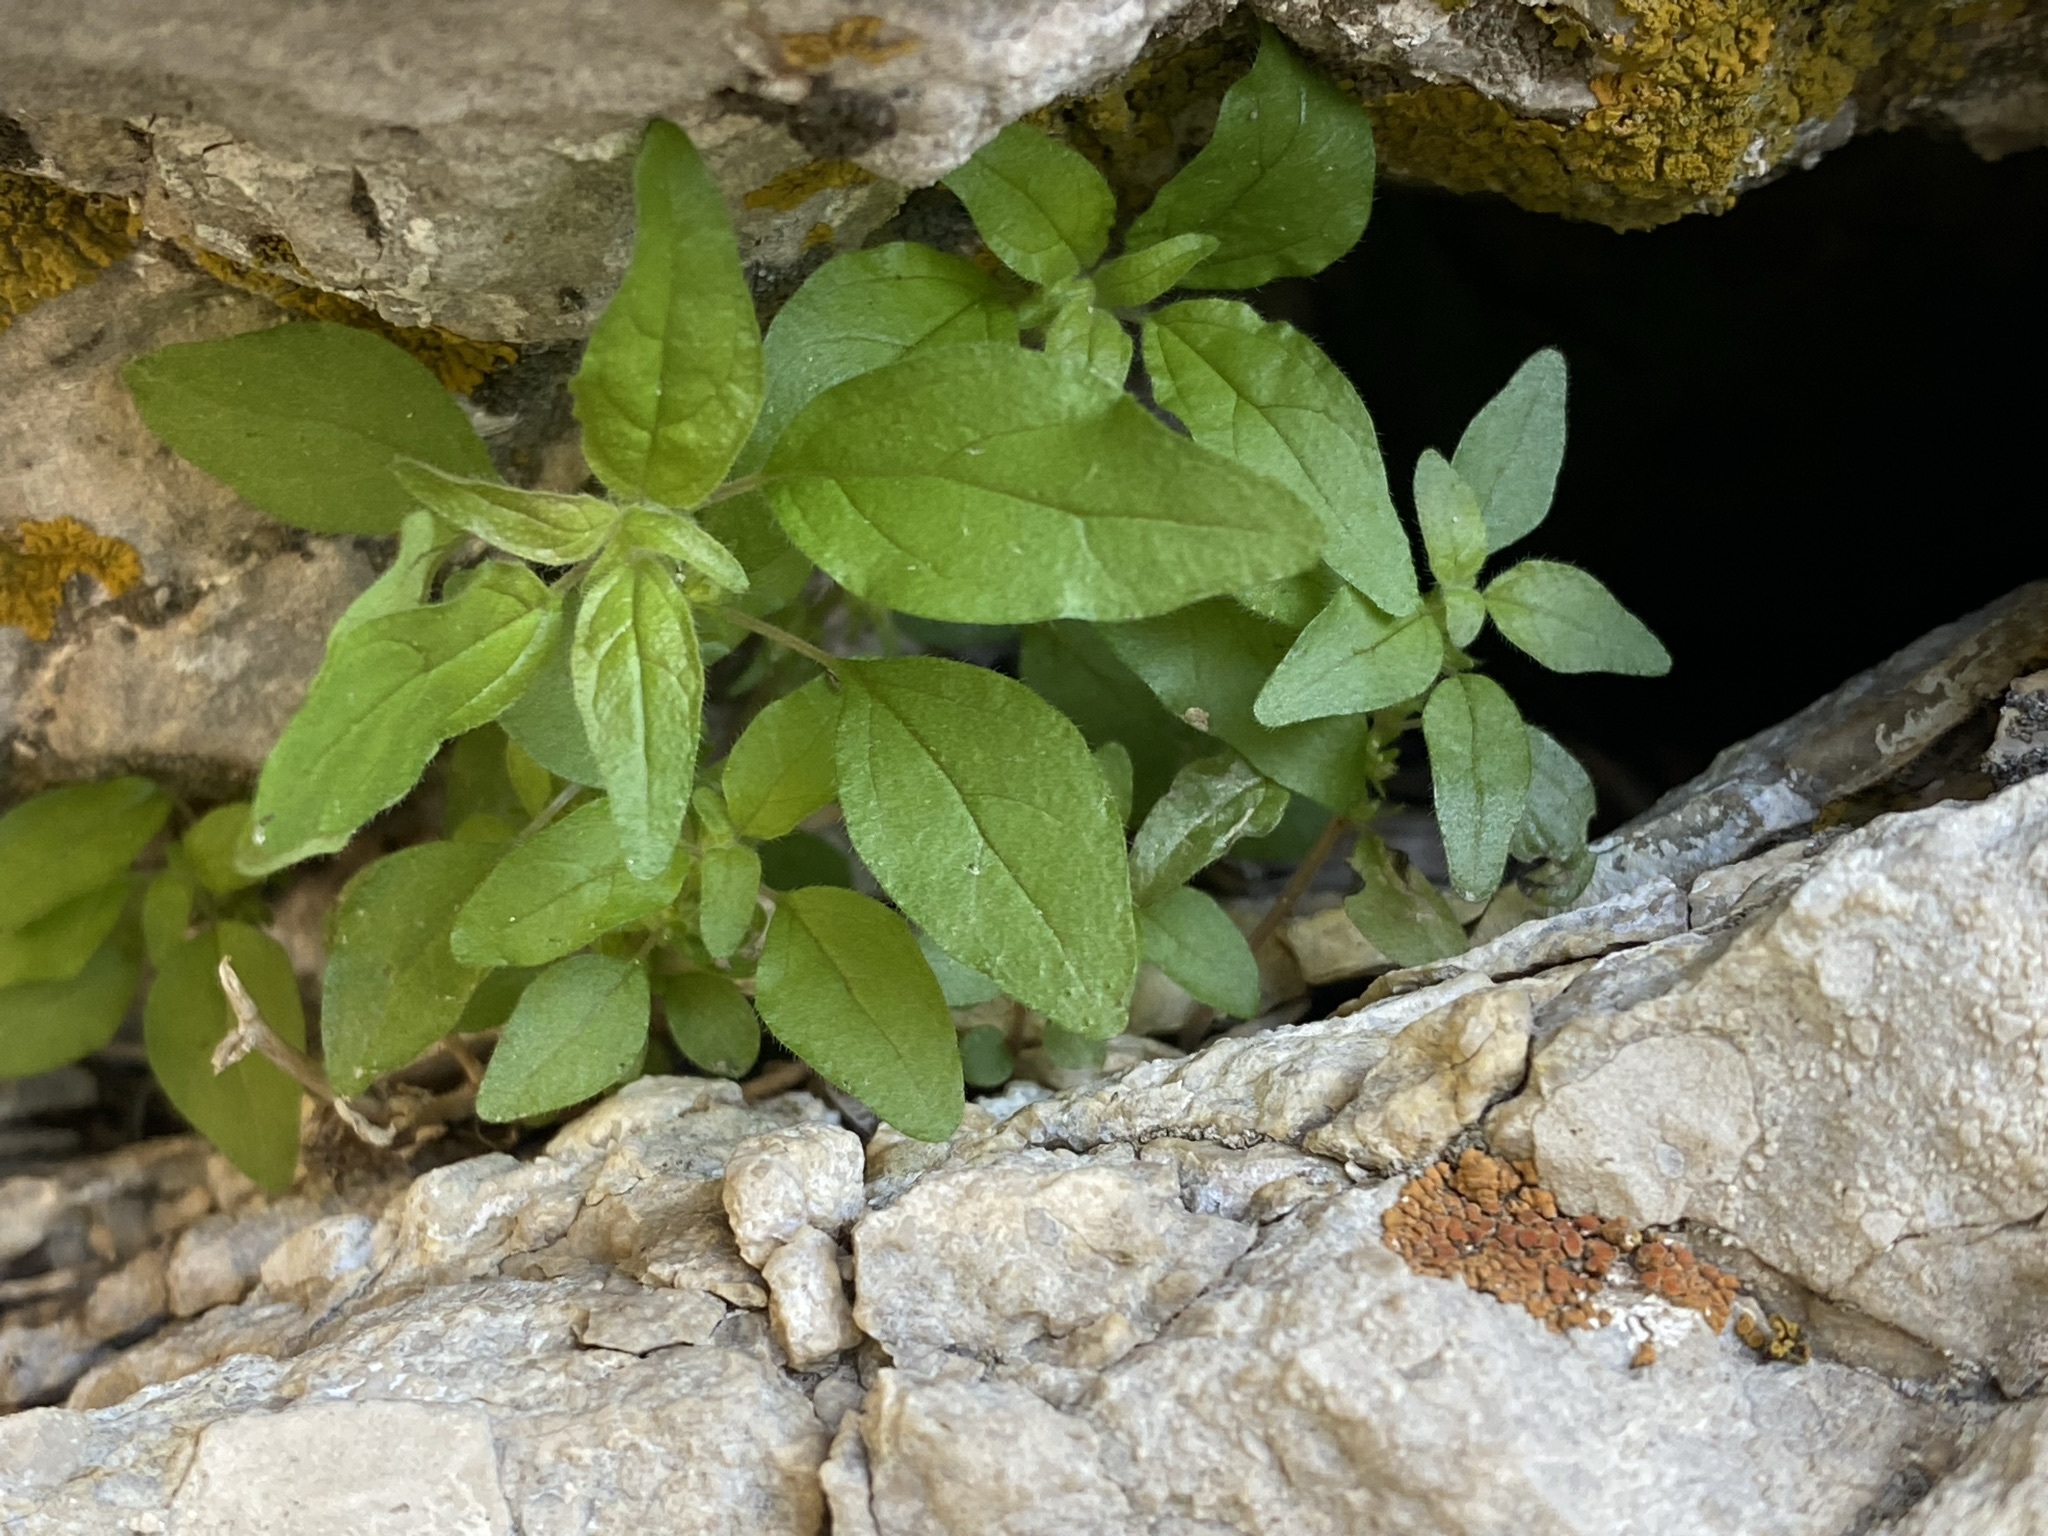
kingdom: Plantae
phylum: Tracheophyta
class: Magnoliopsida
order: Rosales
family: Urticaceae
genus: Parietaria
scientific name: Parietaria pensylvanica
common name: Pennsylvania pellitory
